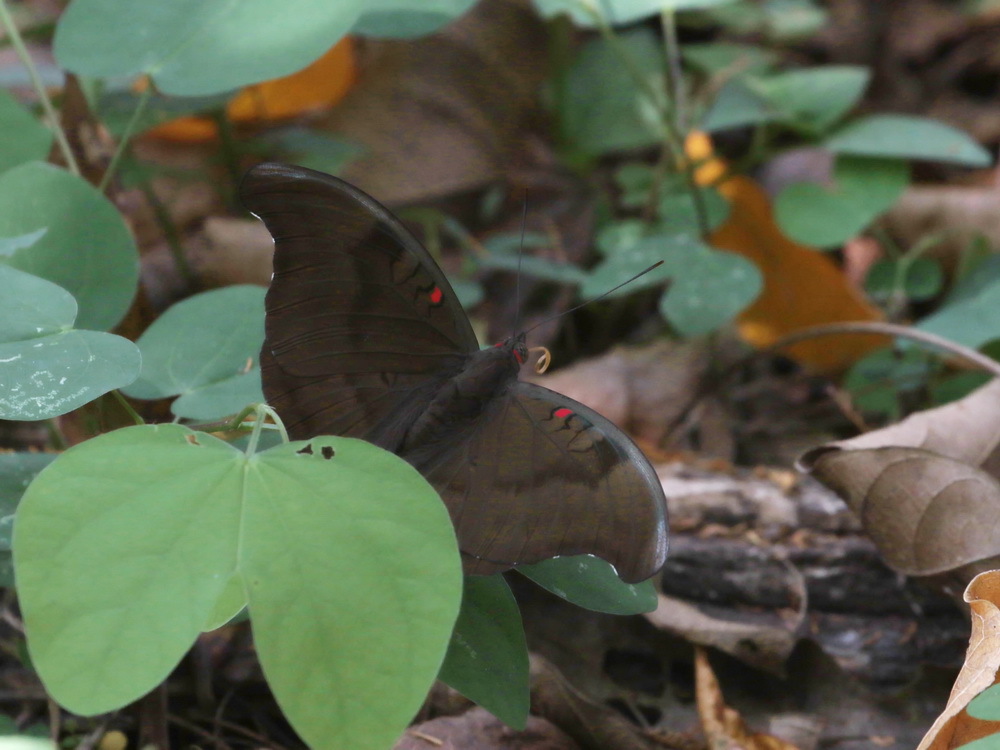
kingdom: Animalia
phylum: Arthropoda
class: Insecta
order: Lepidoptera
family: Nymphalidae
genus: Euthalia
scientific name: Euthalia Dophla evelina
